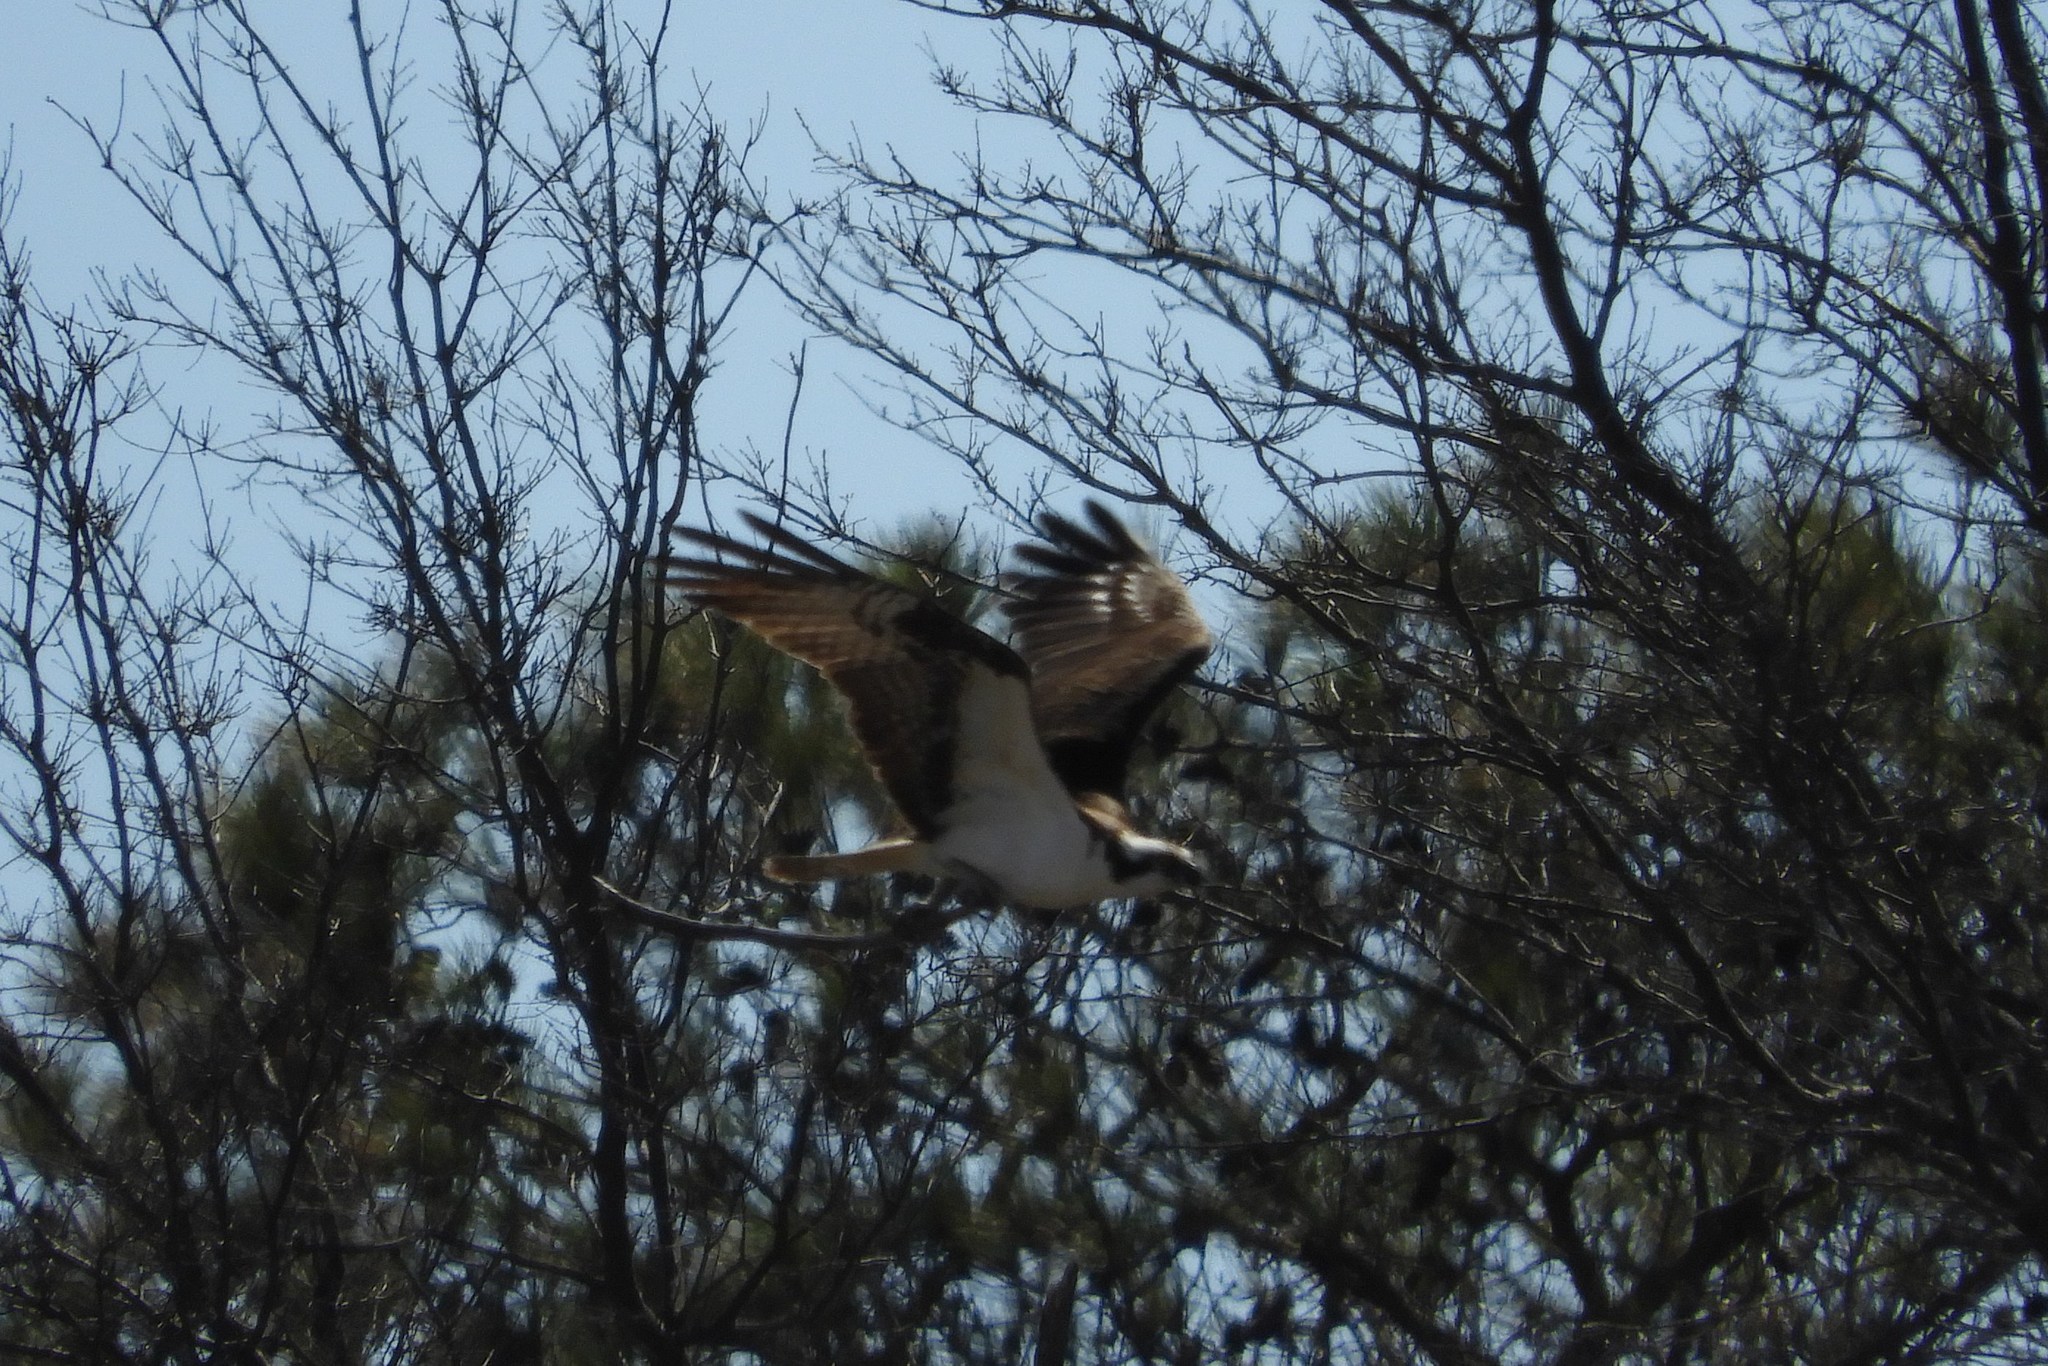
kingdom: Animalia
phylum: Chordata
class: Aves
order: Accipitriformes
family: Pandionidae
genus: Pandion
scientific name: Pandion haliaetus
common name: Osprey
